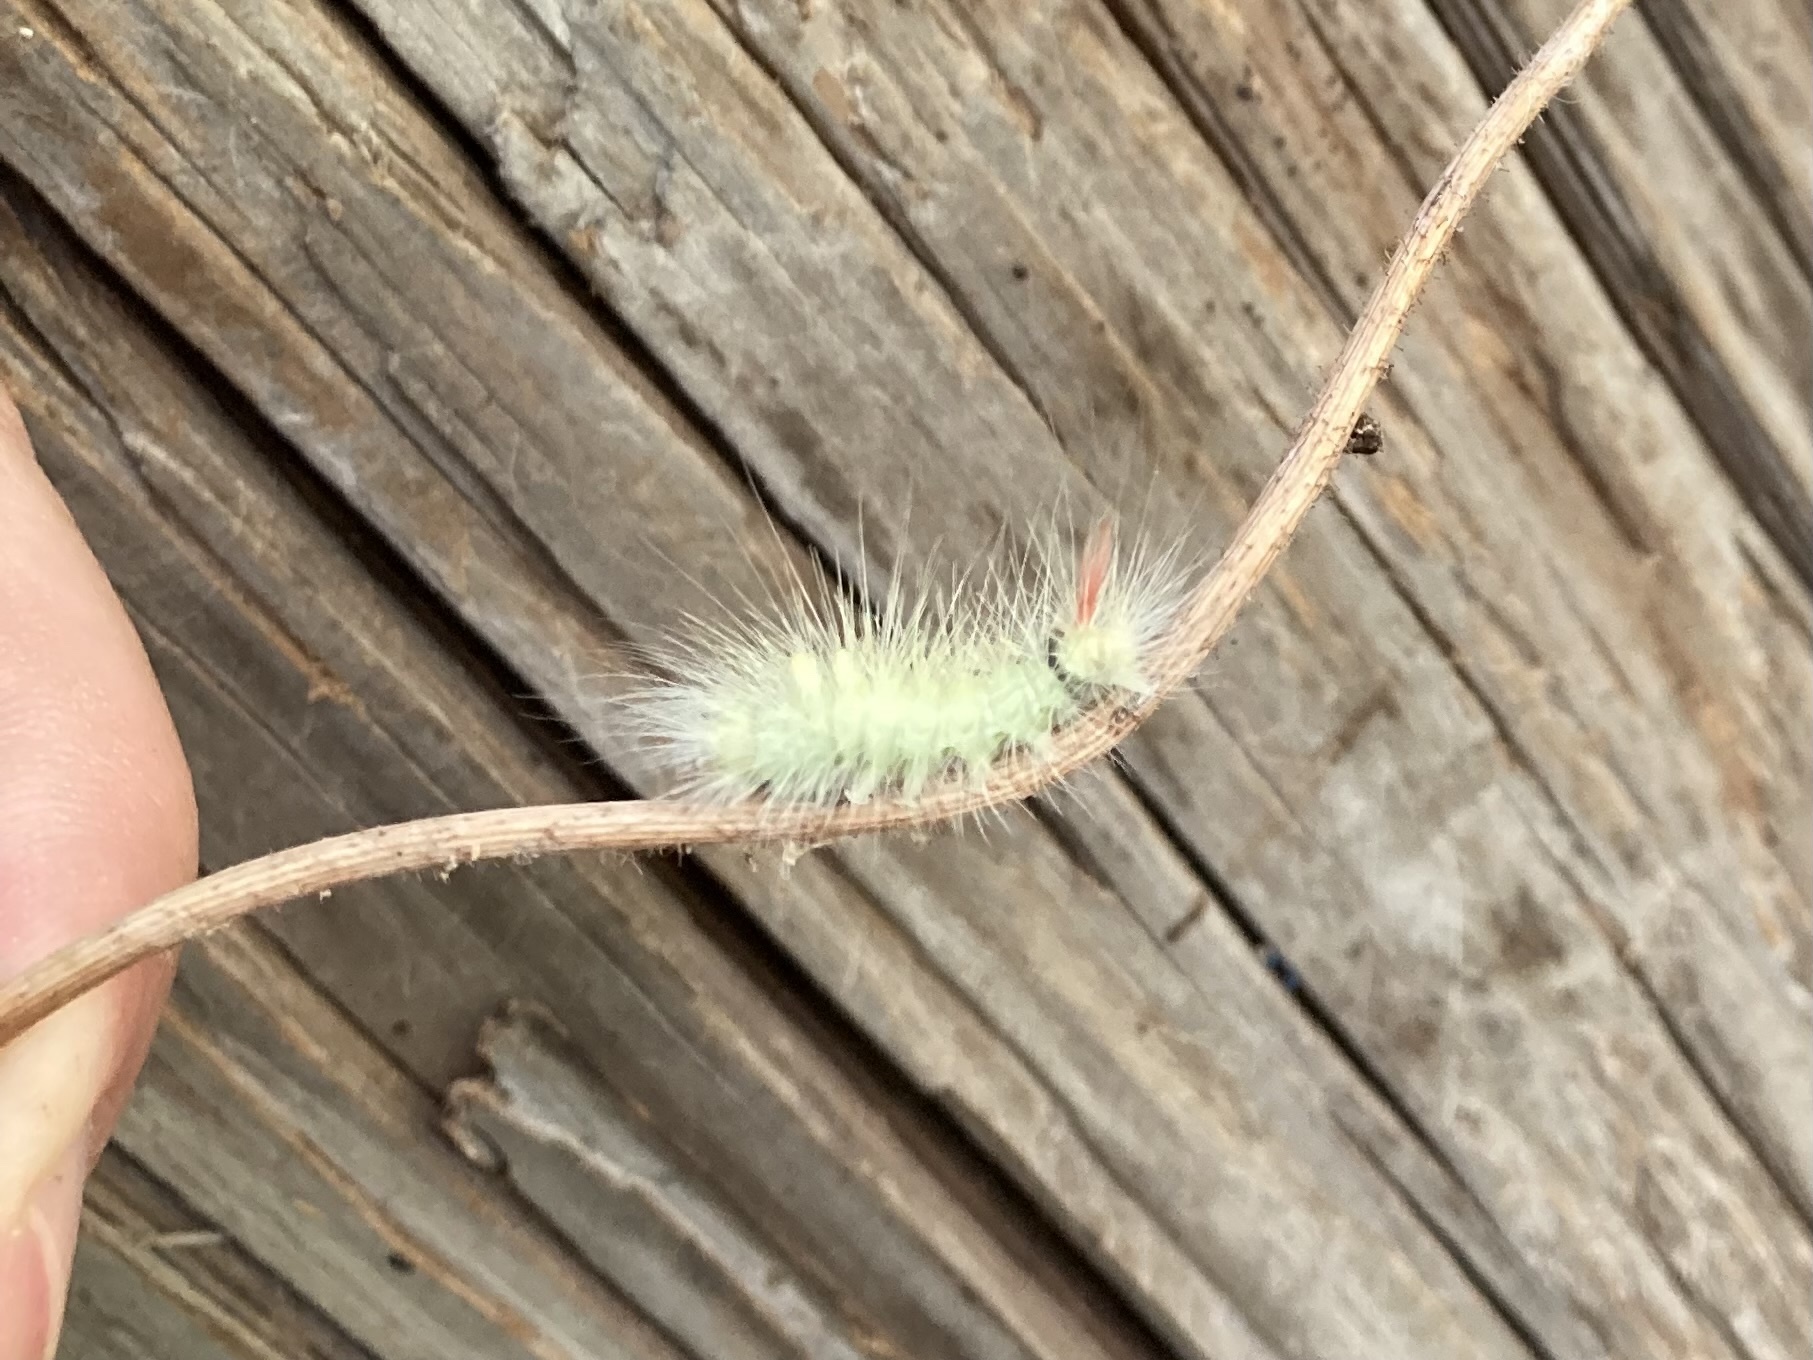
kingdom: Animalia
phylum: Arthropoda
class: Insecta
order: Lepidoptera
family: Erebidae
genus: Calliteara
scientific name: Calliteara pudibunda
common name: Pale tussock
